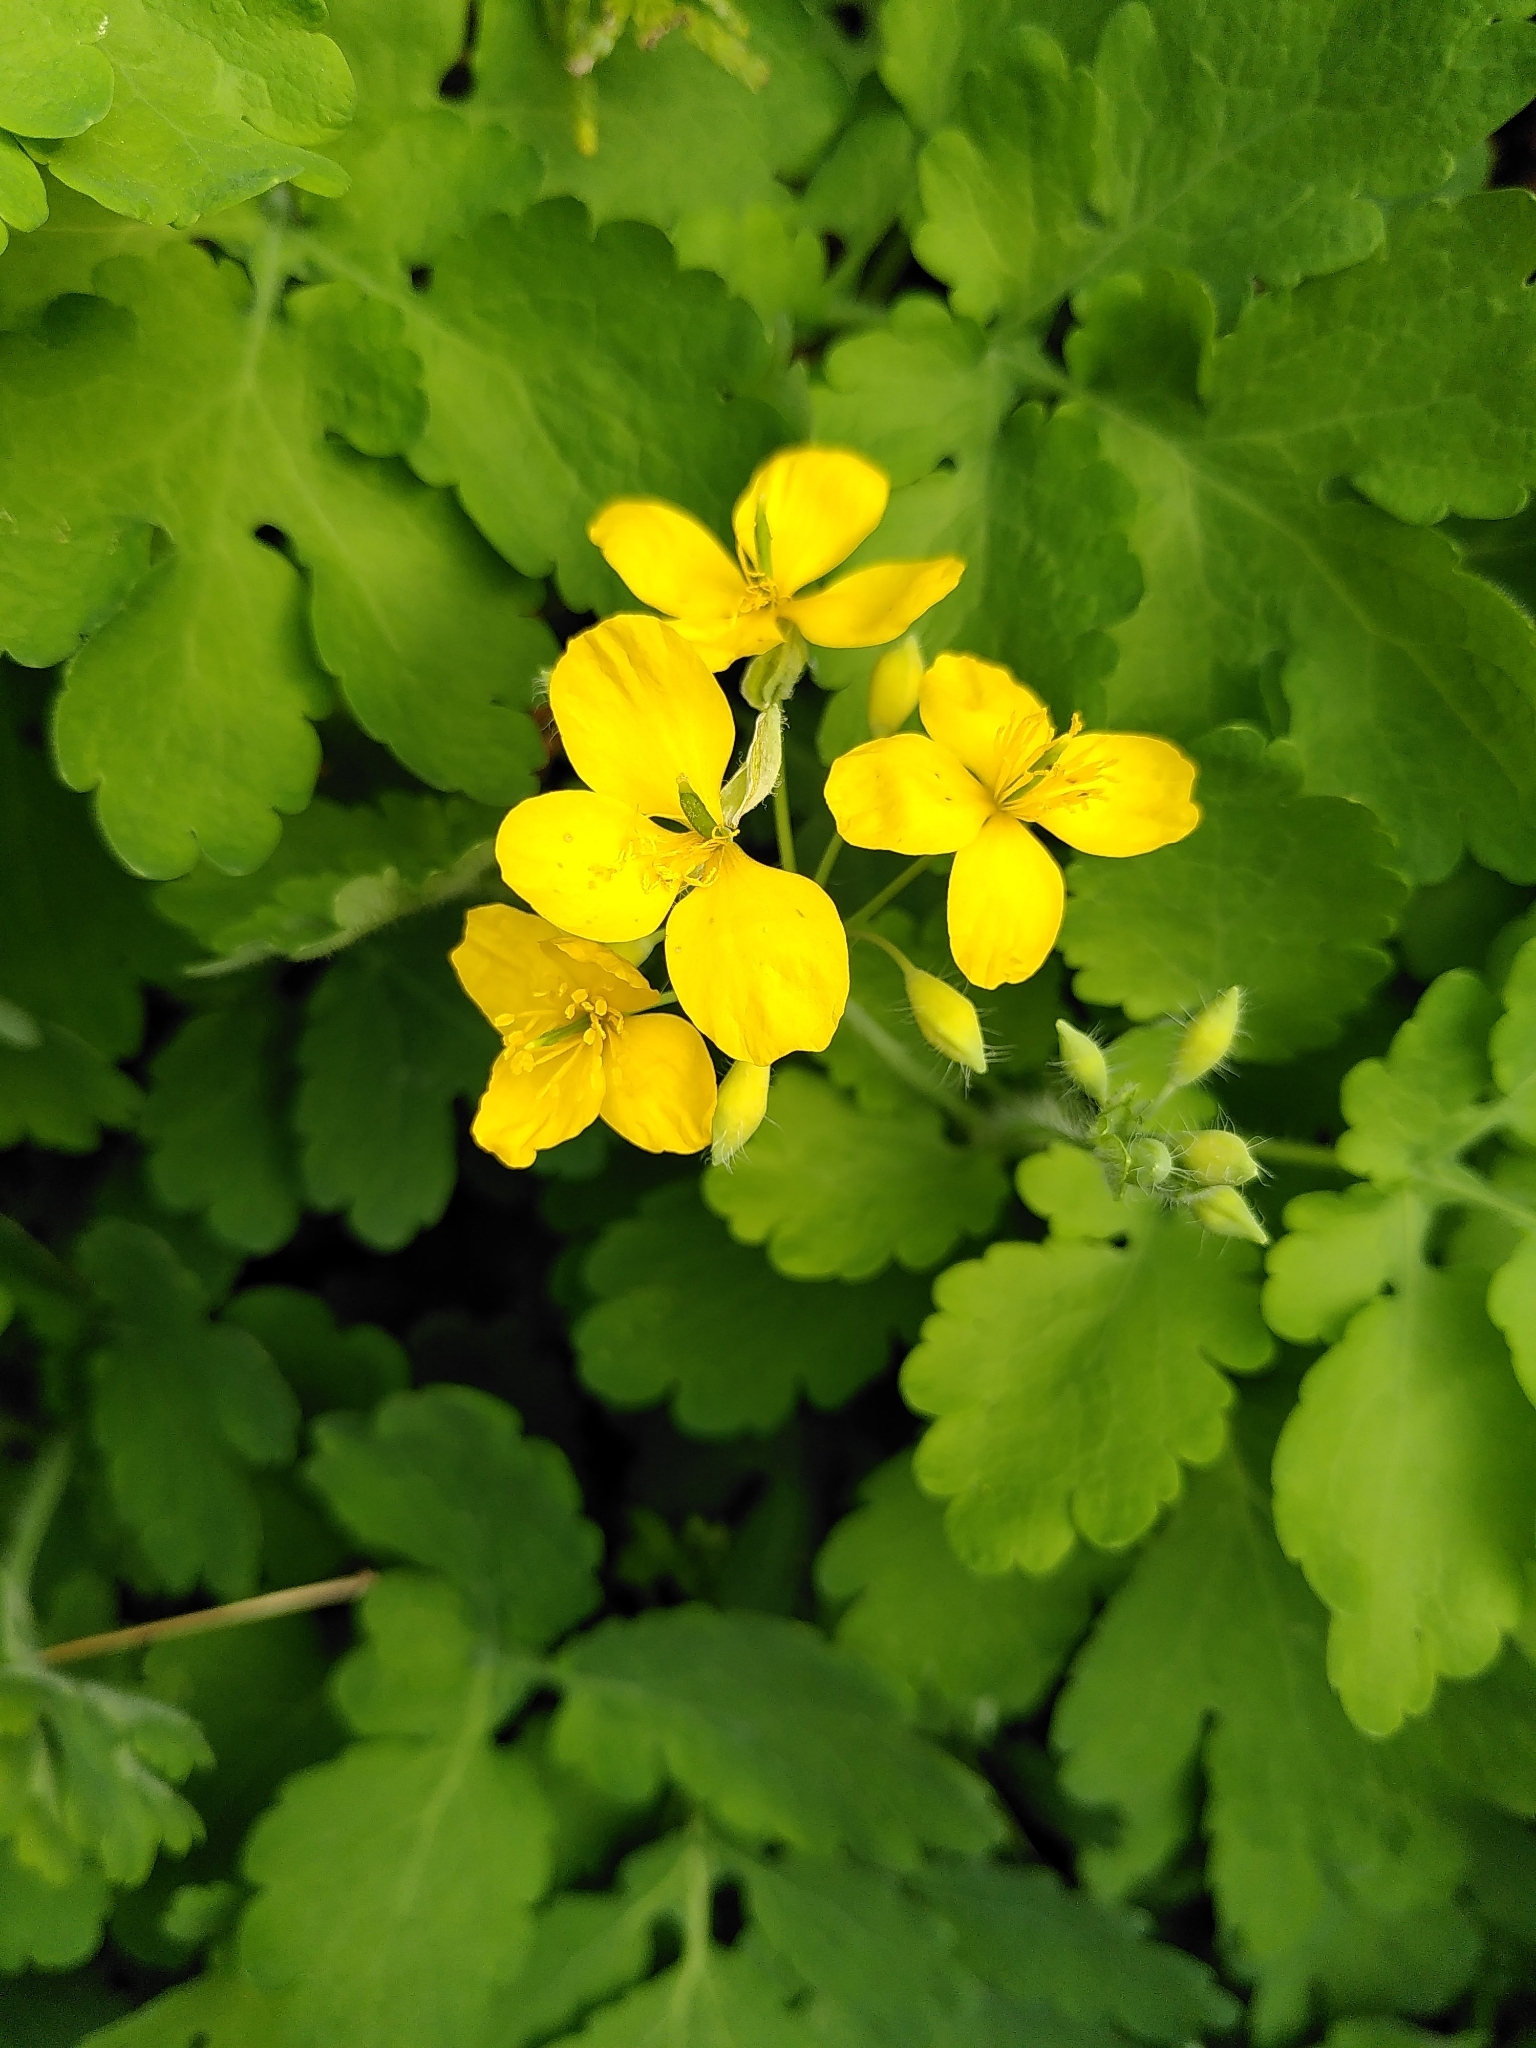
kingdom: Plantae
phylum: Tracheophyta
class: Magnoliopsida
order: Ranunculales
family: Papaveraceae
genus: Chelidonium
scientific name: Chelidonium majus
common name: Greater celandine
